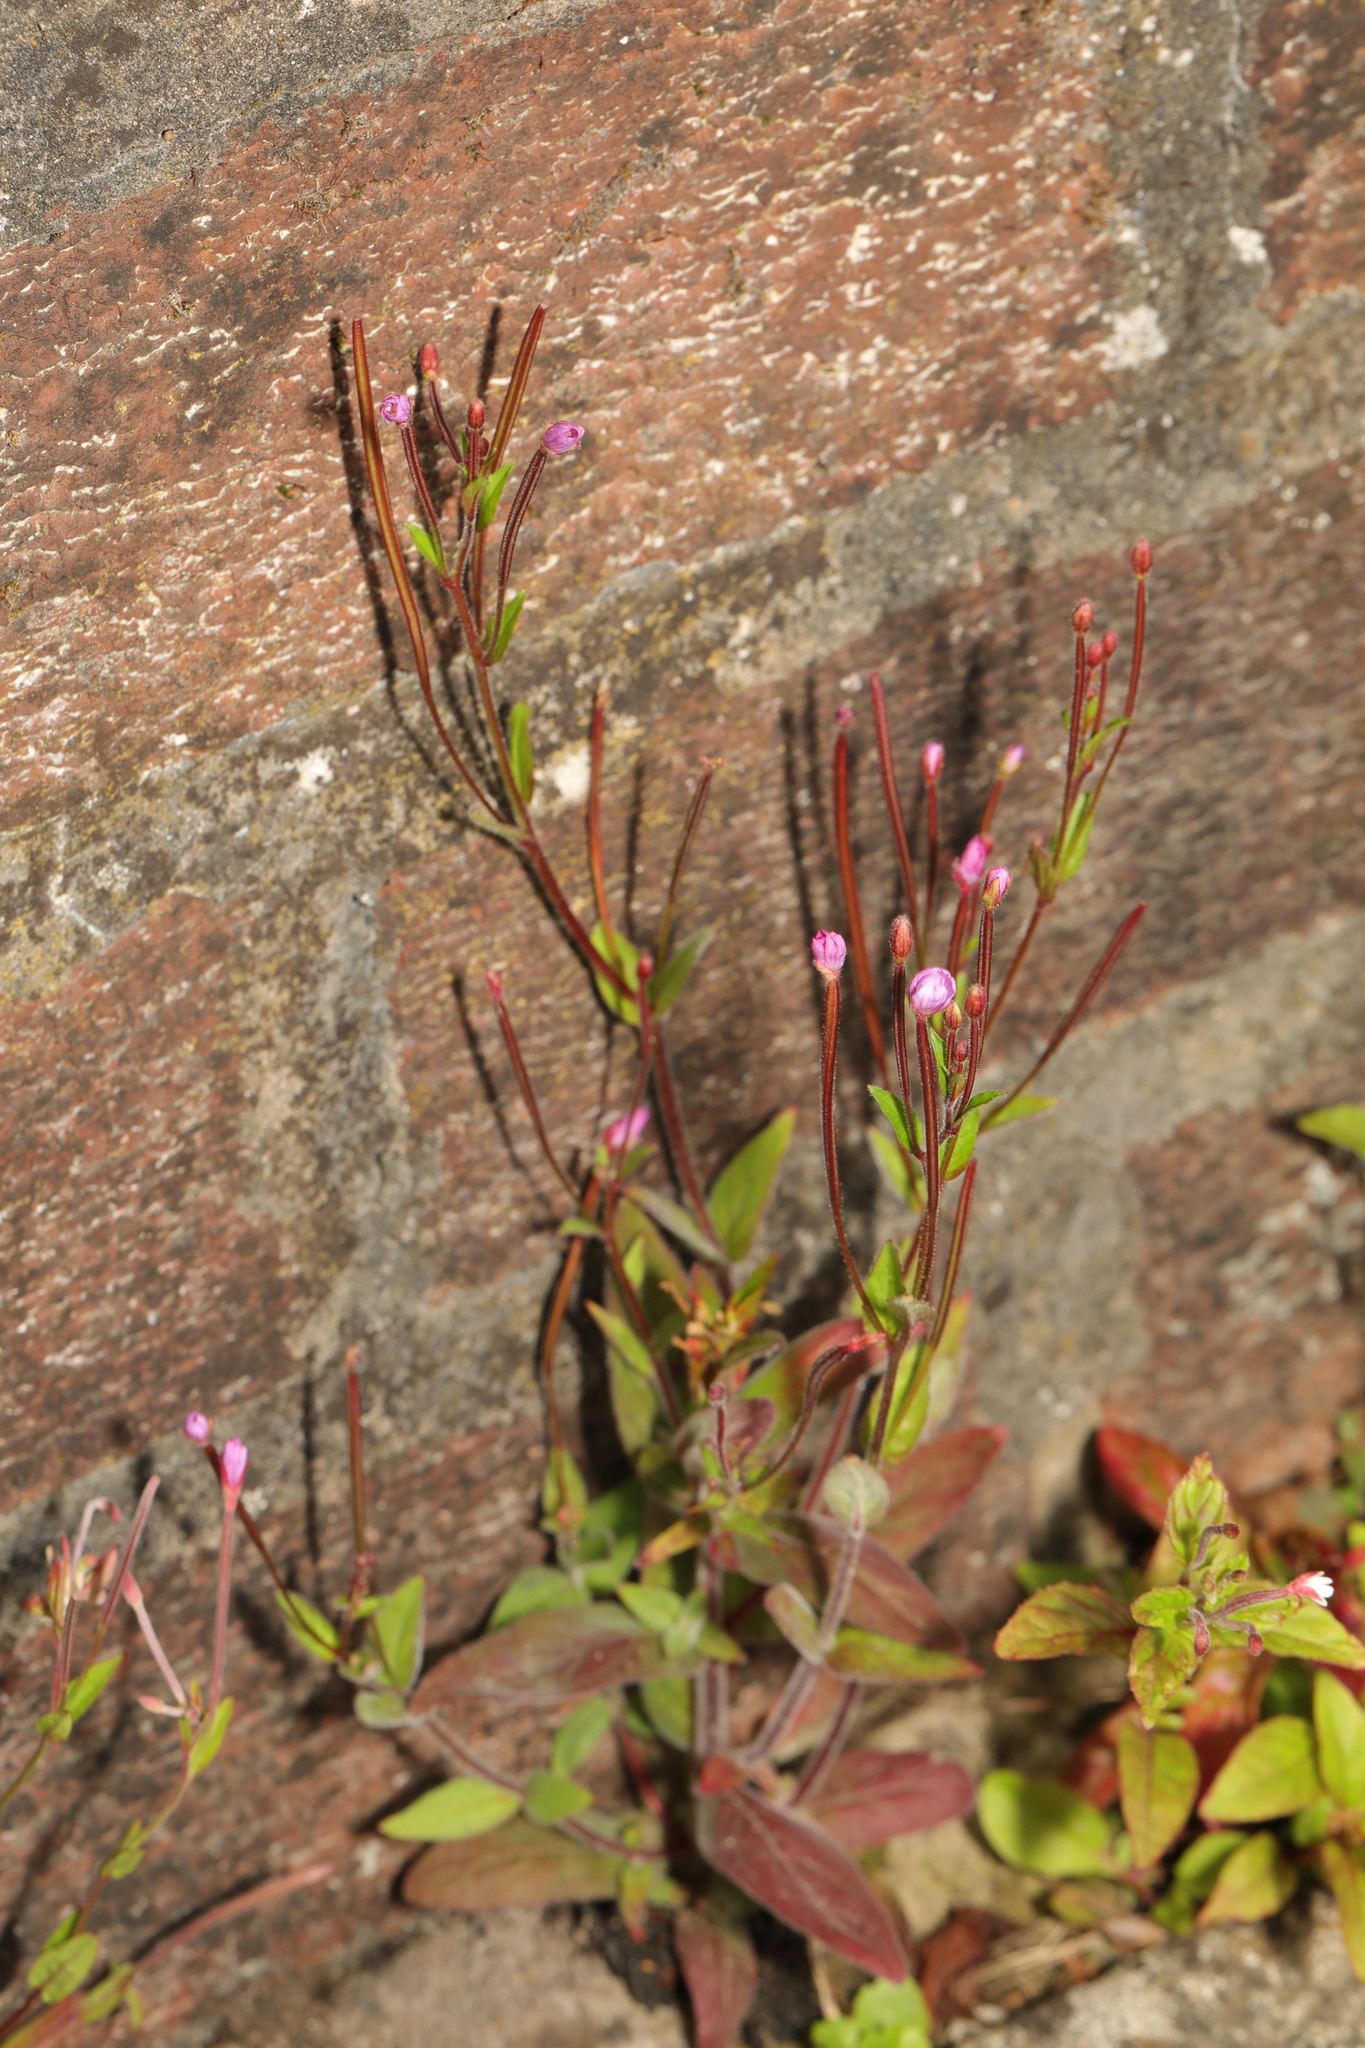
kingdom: Plantae
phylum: Tracheophyta
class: Magnoliopsida
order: Myrtales
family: Onagraceae
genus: Epilobium
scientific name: Epilobium parviflorum
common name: Hoary willowherb
